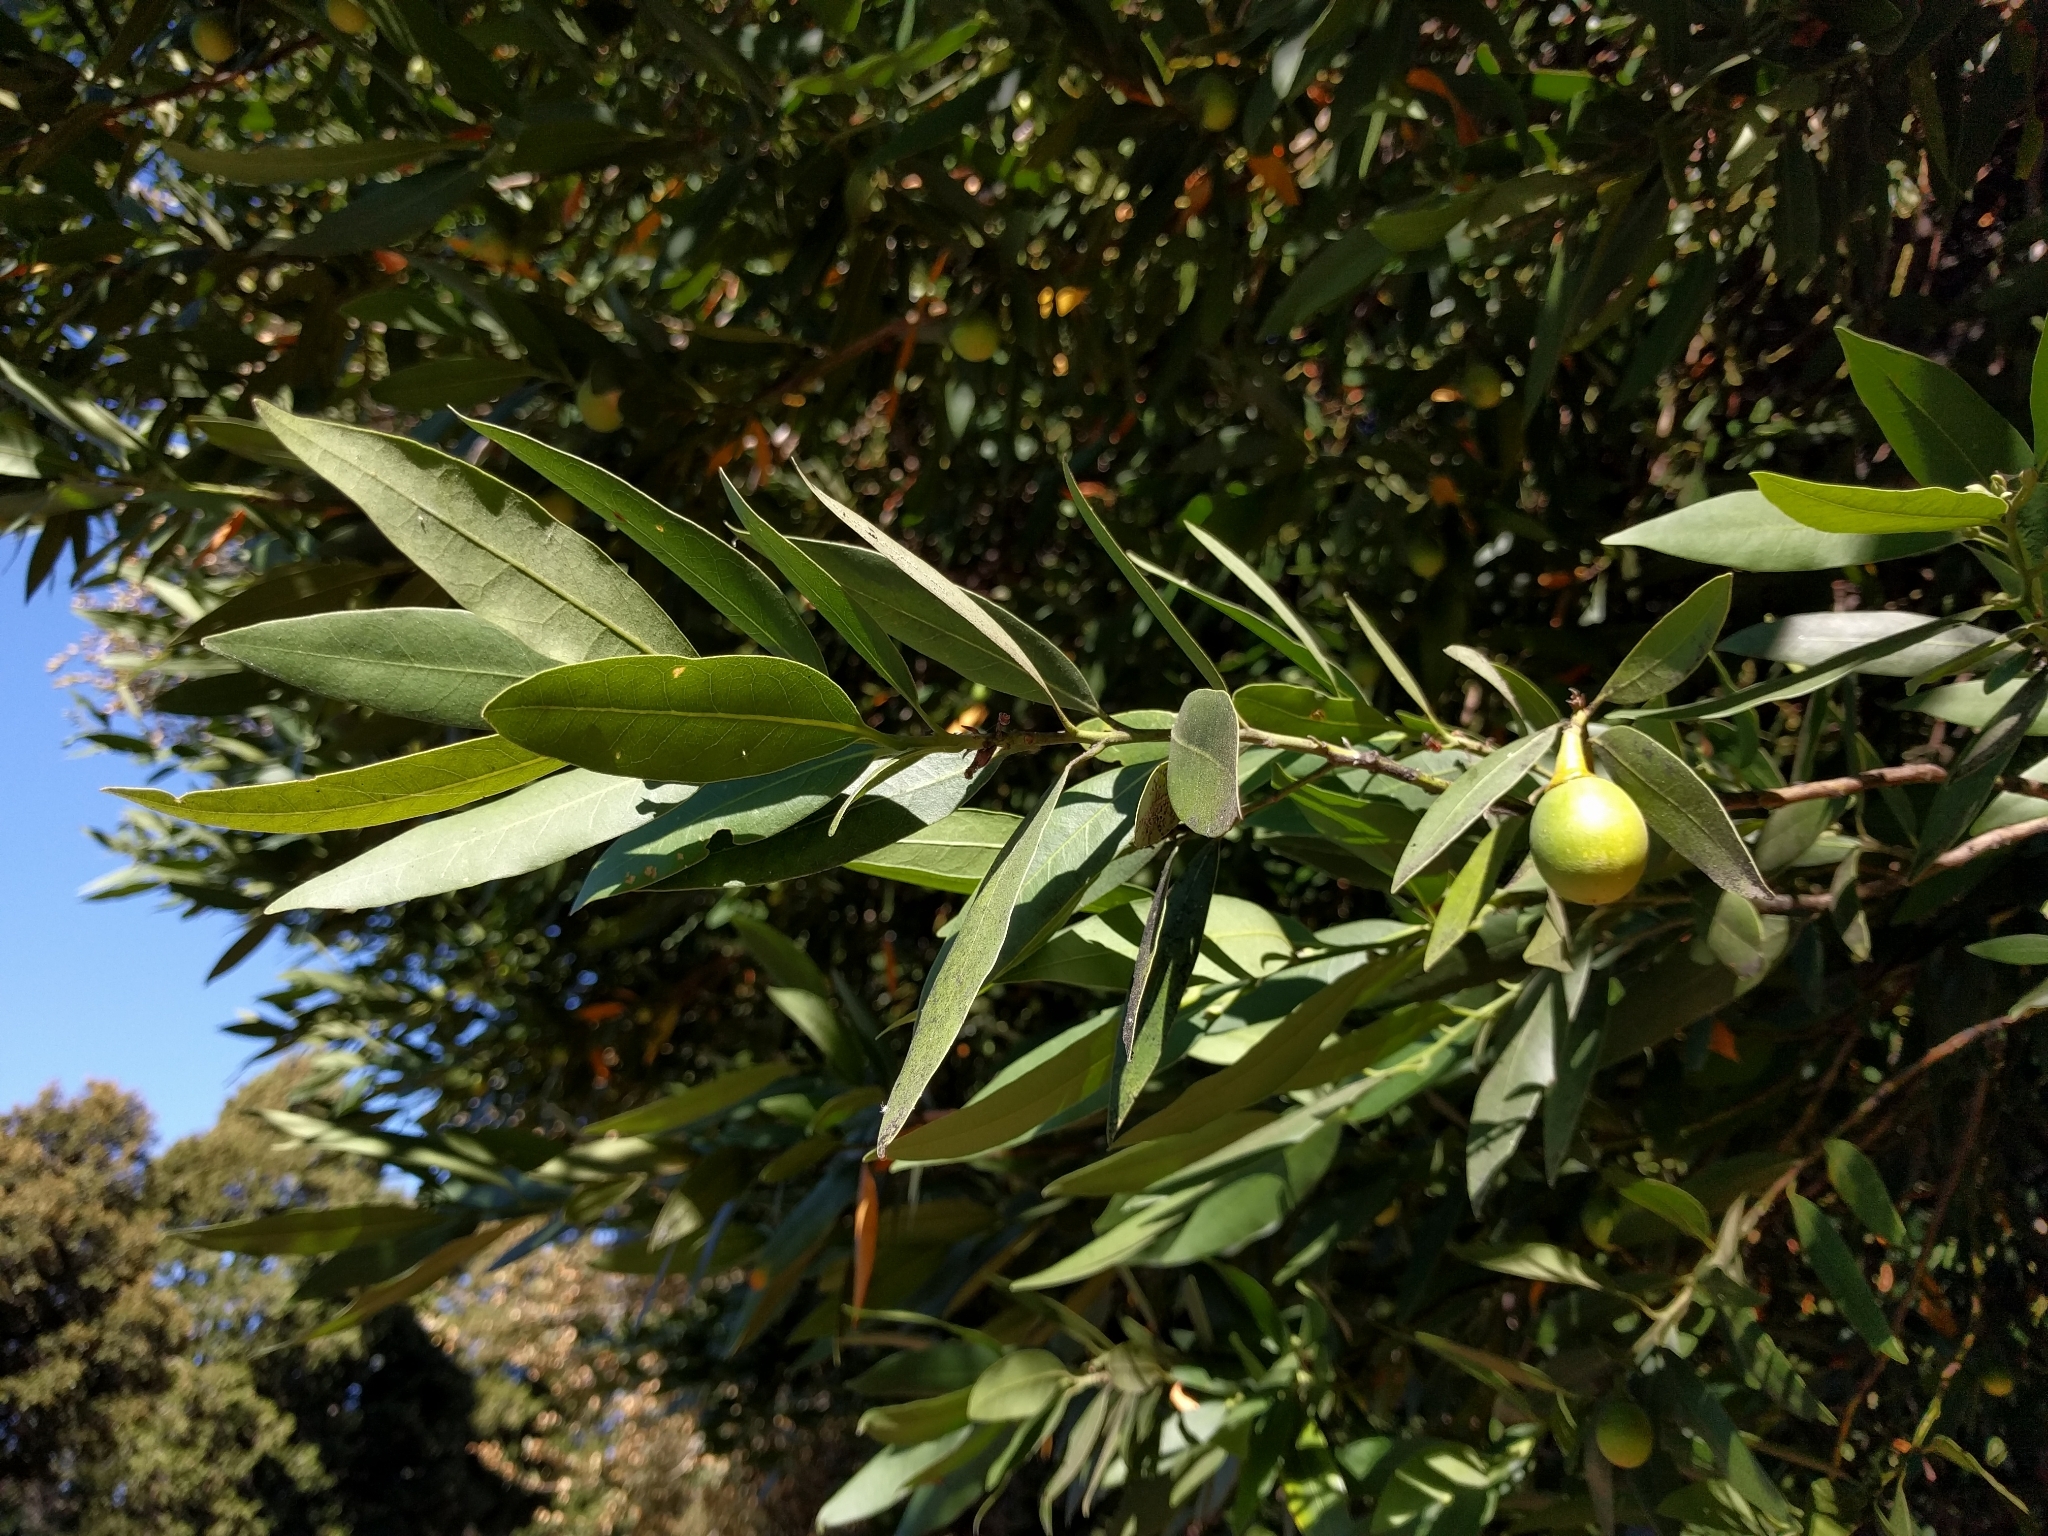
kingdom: Plantae
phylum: Tracheophyta
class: Magnoliopsida
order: Laurales
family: Lauraceae
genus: Umbellularia
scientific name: Umbellularia californica
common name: California bay
